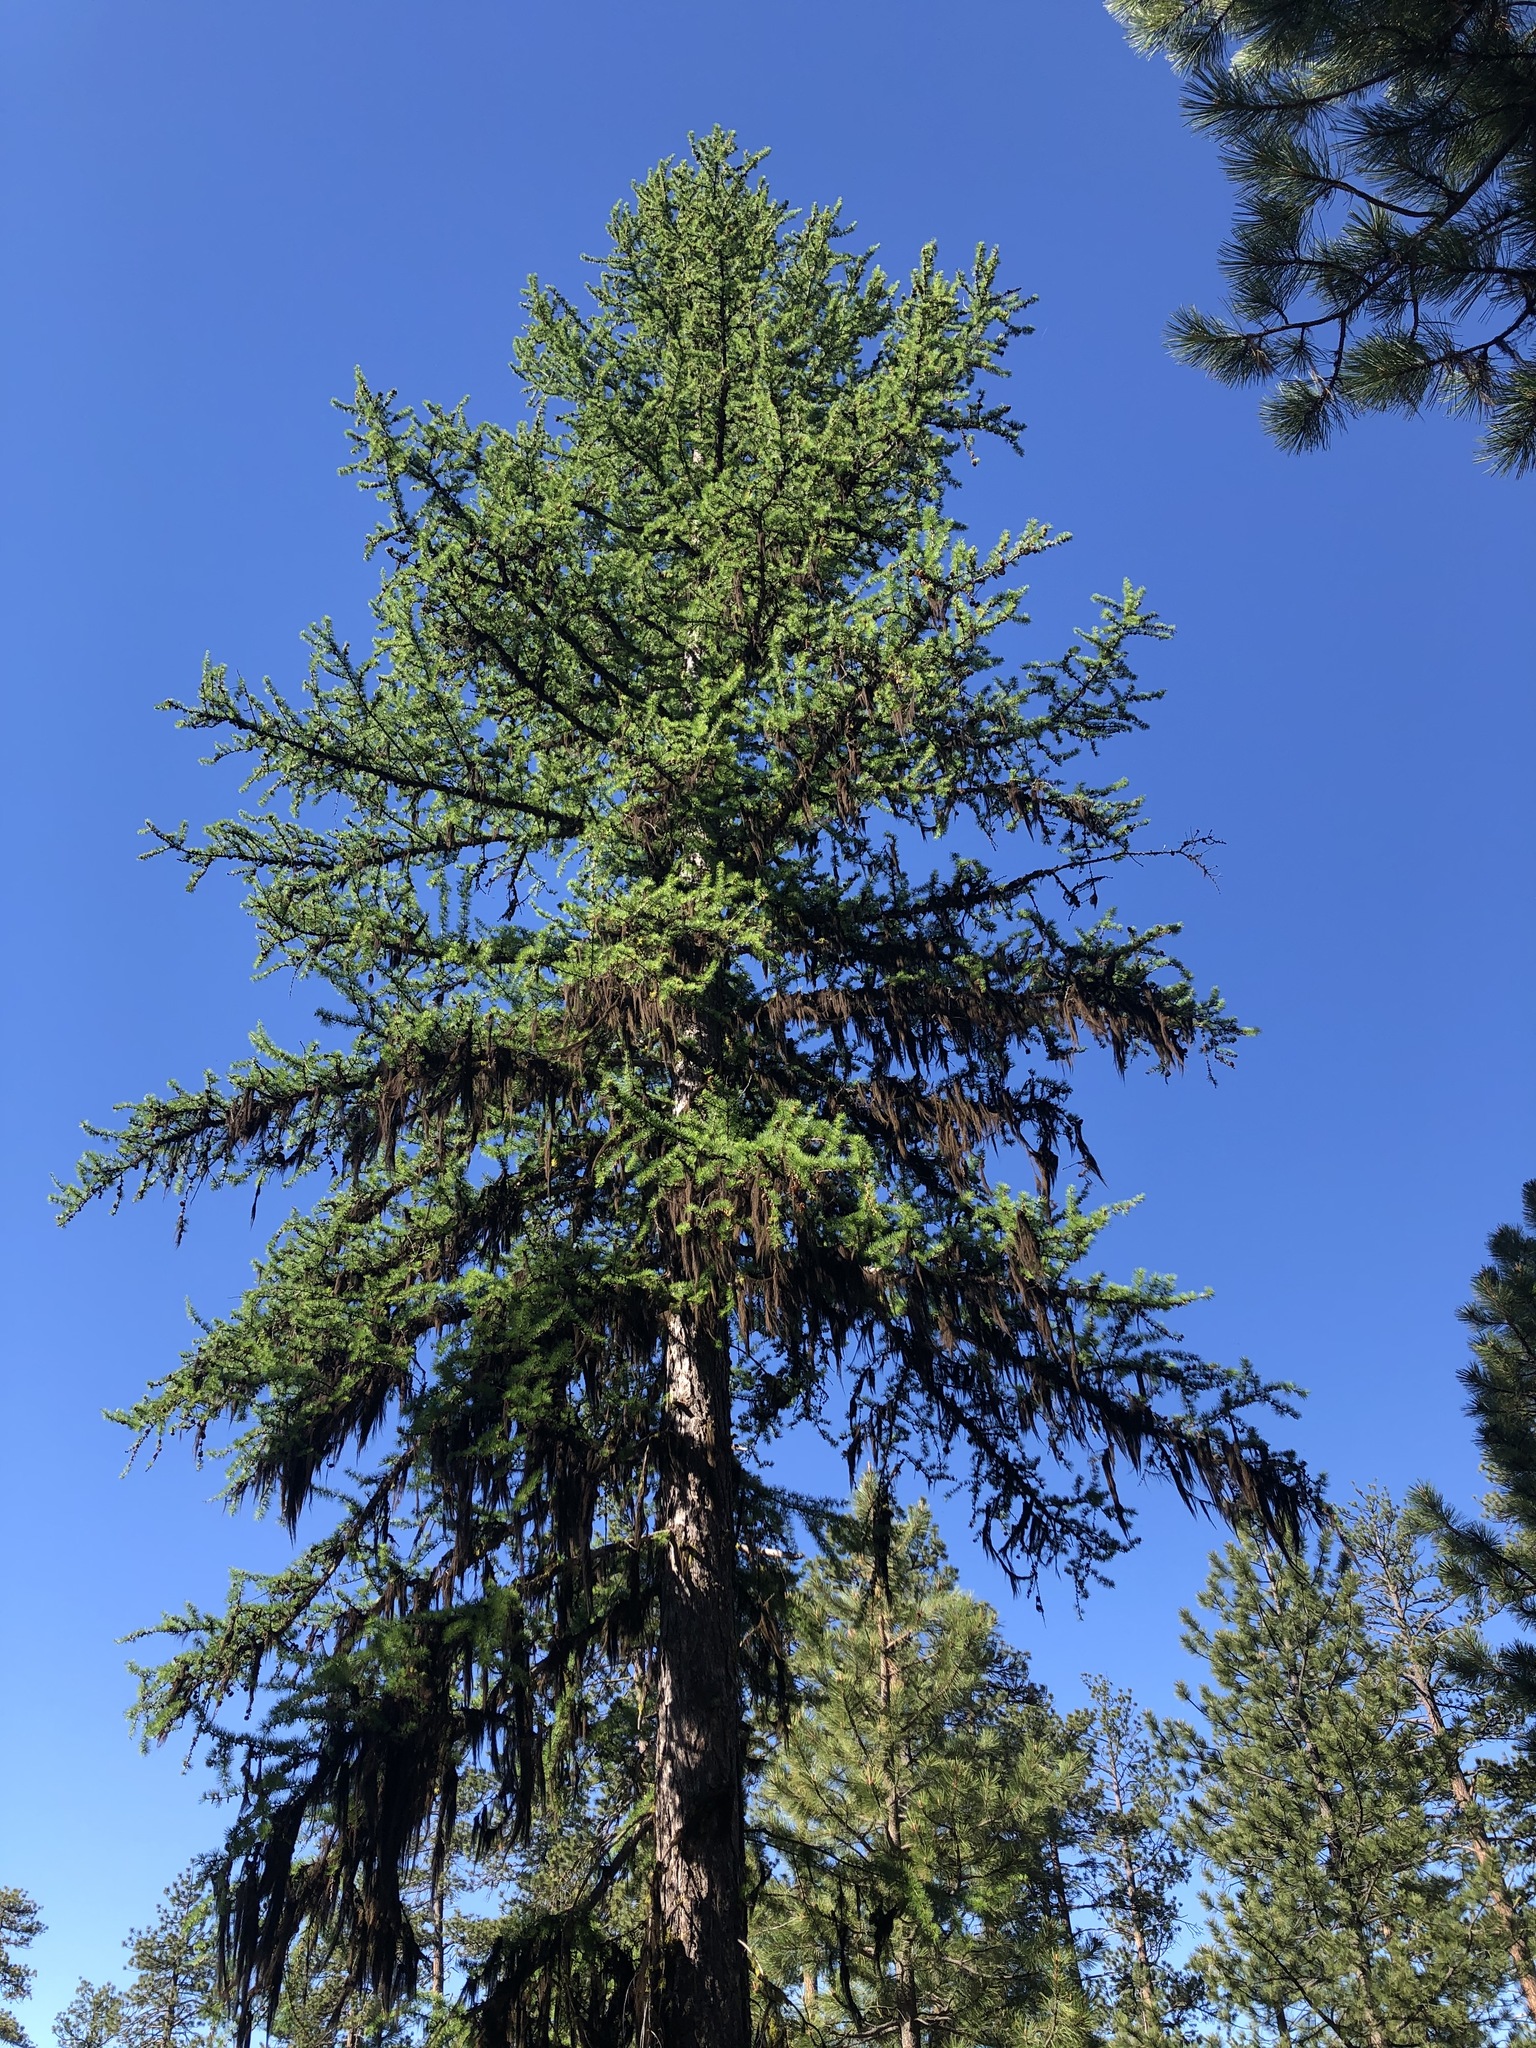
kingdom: Plantae
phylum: Tracheophyta
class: Pinopsida
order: Pinales
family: Pinaceae
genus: Larix
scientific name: Larix occidentalis
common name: Western larch
